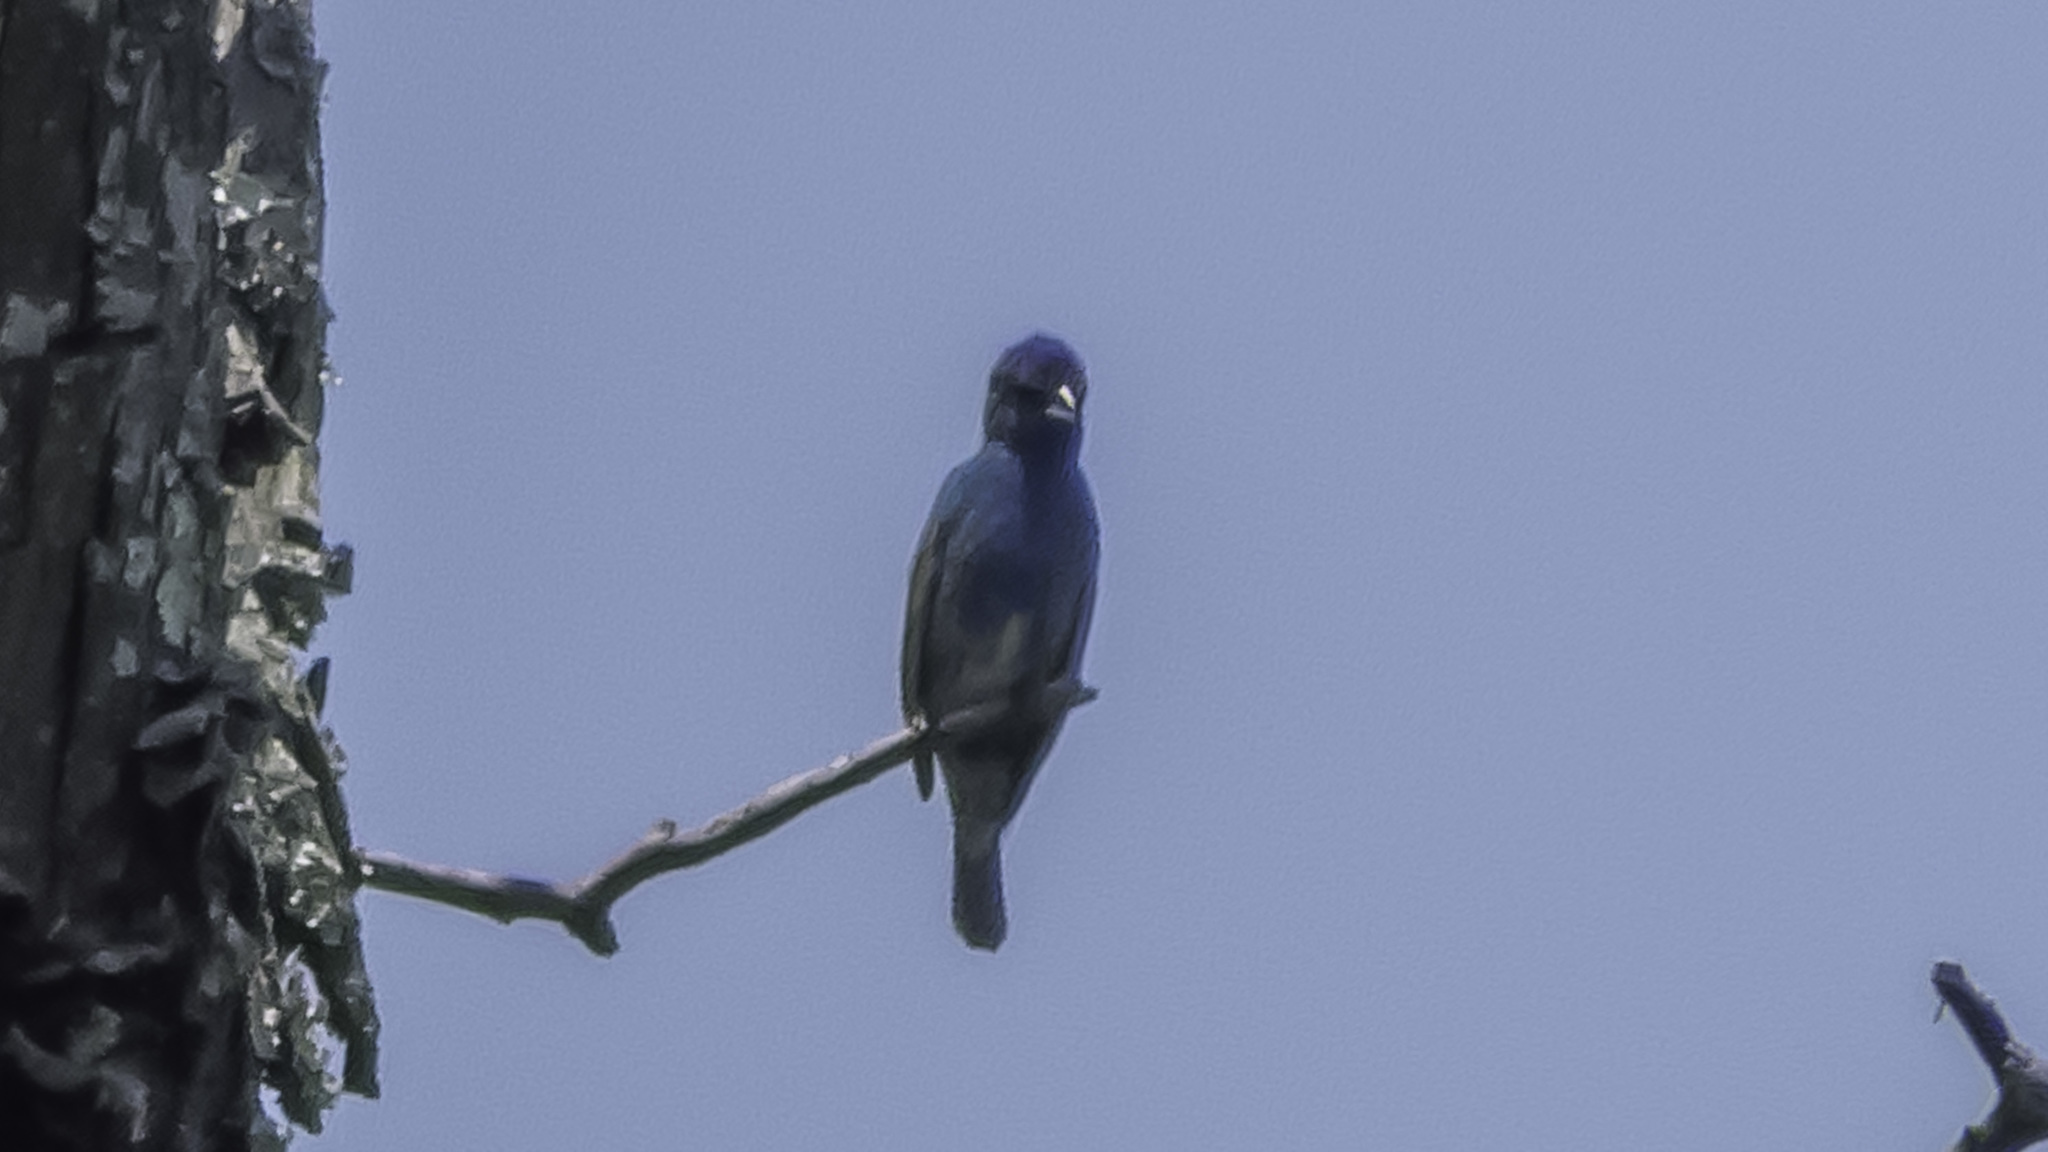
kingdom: Animalia
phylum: Chordata
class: Aves
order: Passeriformes
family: Cardinalidae
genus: Passerina
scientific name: Passerina cyanea
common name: Indigo bunting
